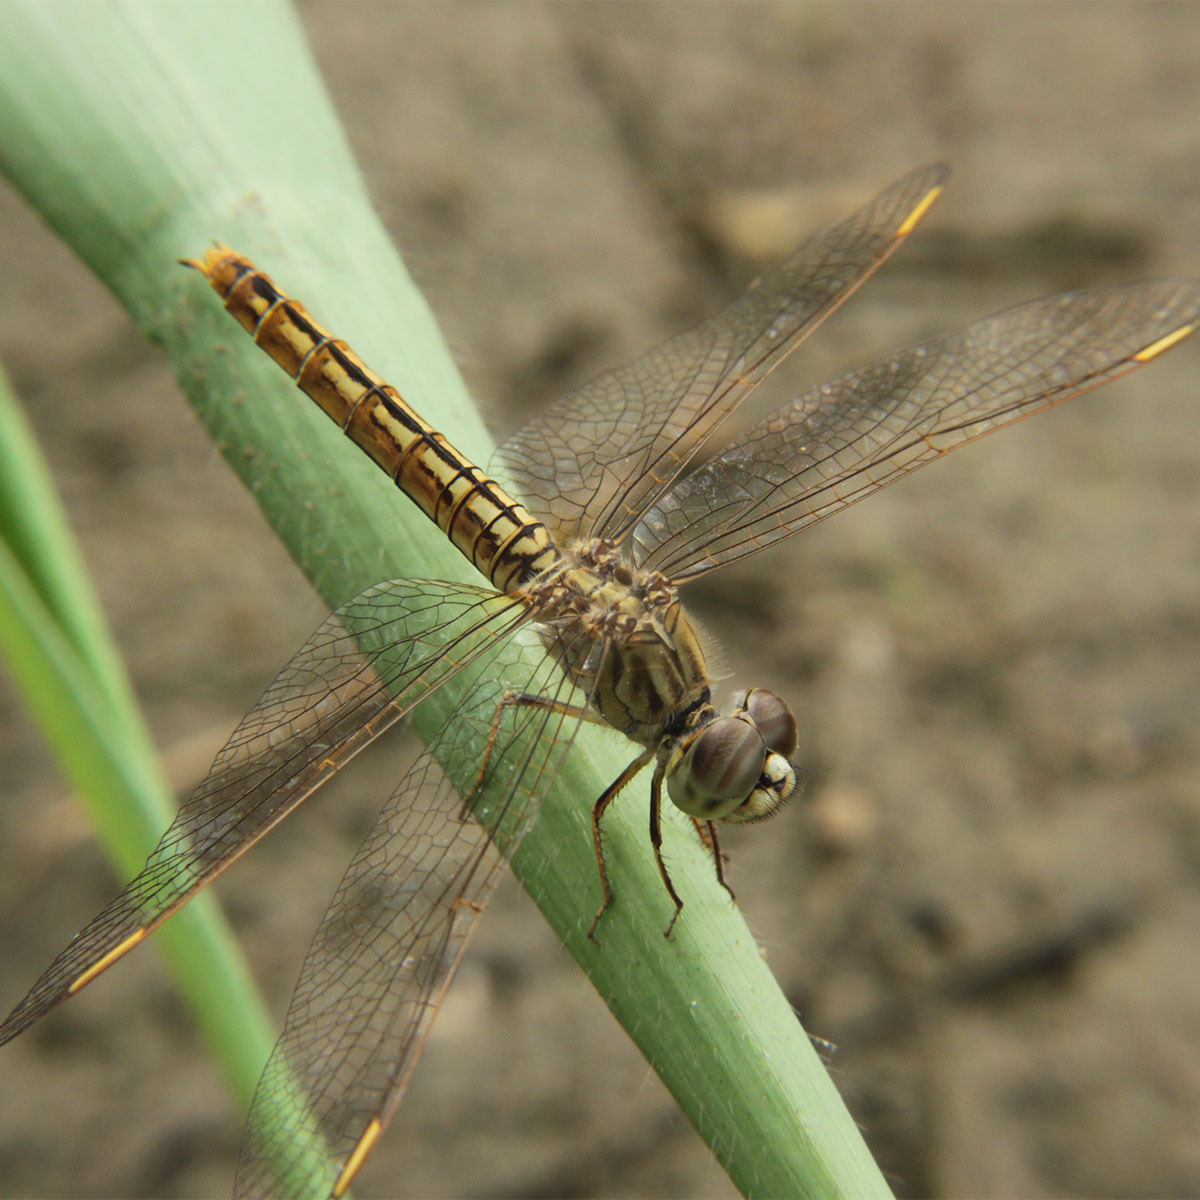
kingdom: Animalia
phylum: Arthropoda
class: Insecta
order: Odonata
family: Libellulidae
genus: Brachythemis
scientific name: Brachythemis contaminata
